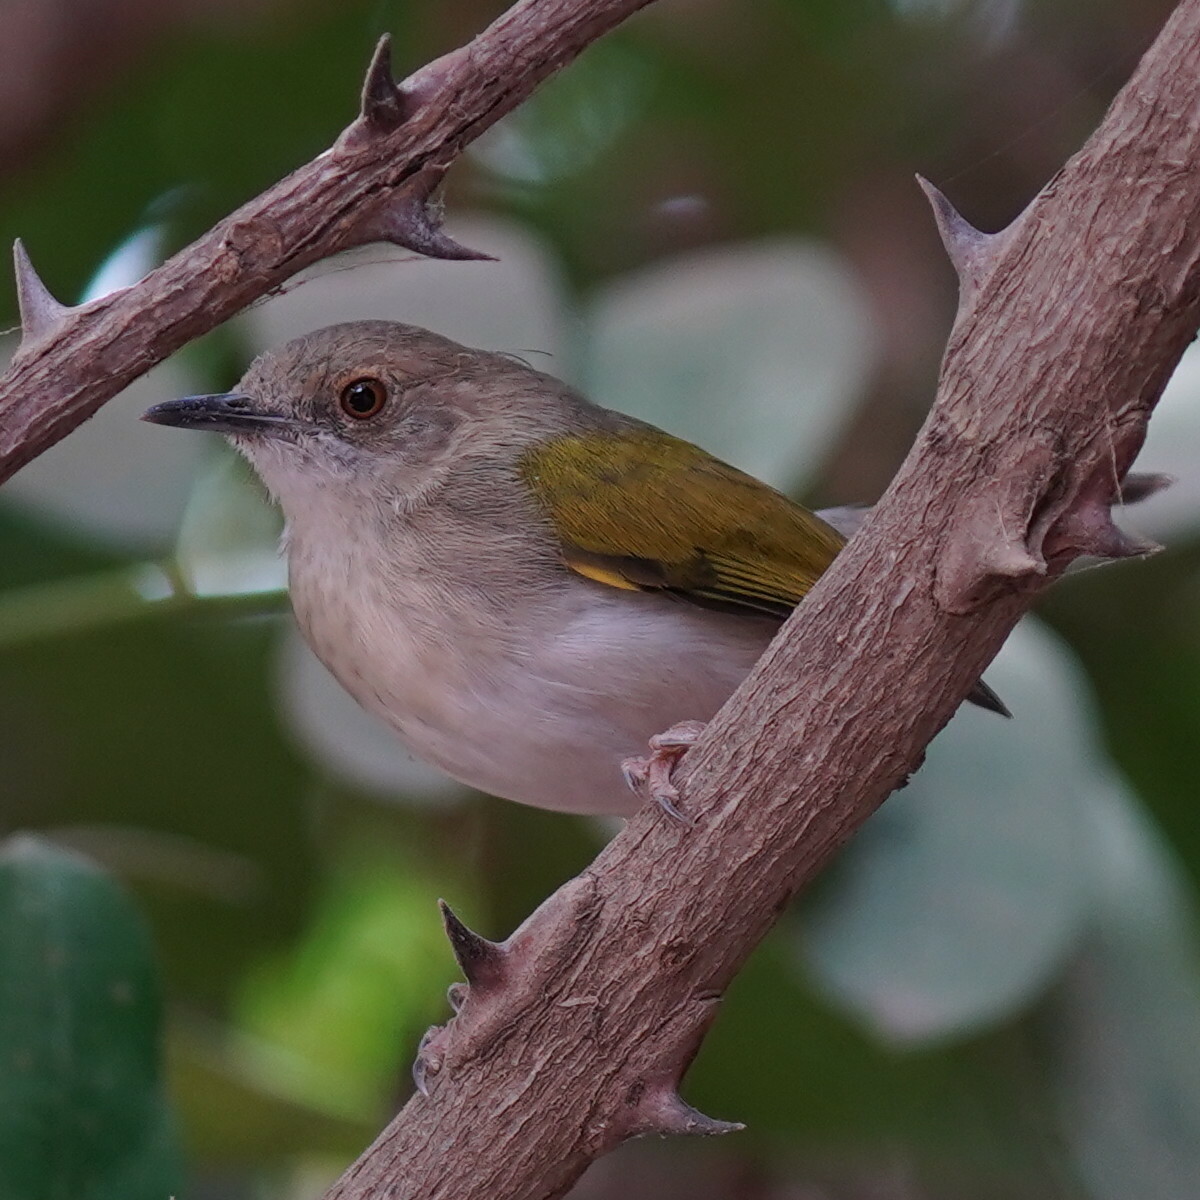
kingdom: Animalia
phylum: Chordata
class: Aves
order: Passeriformes
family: Cisticolidae
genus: Camaroptera
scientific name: Camaroptera brachyura
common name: Green-backed camaroptera
